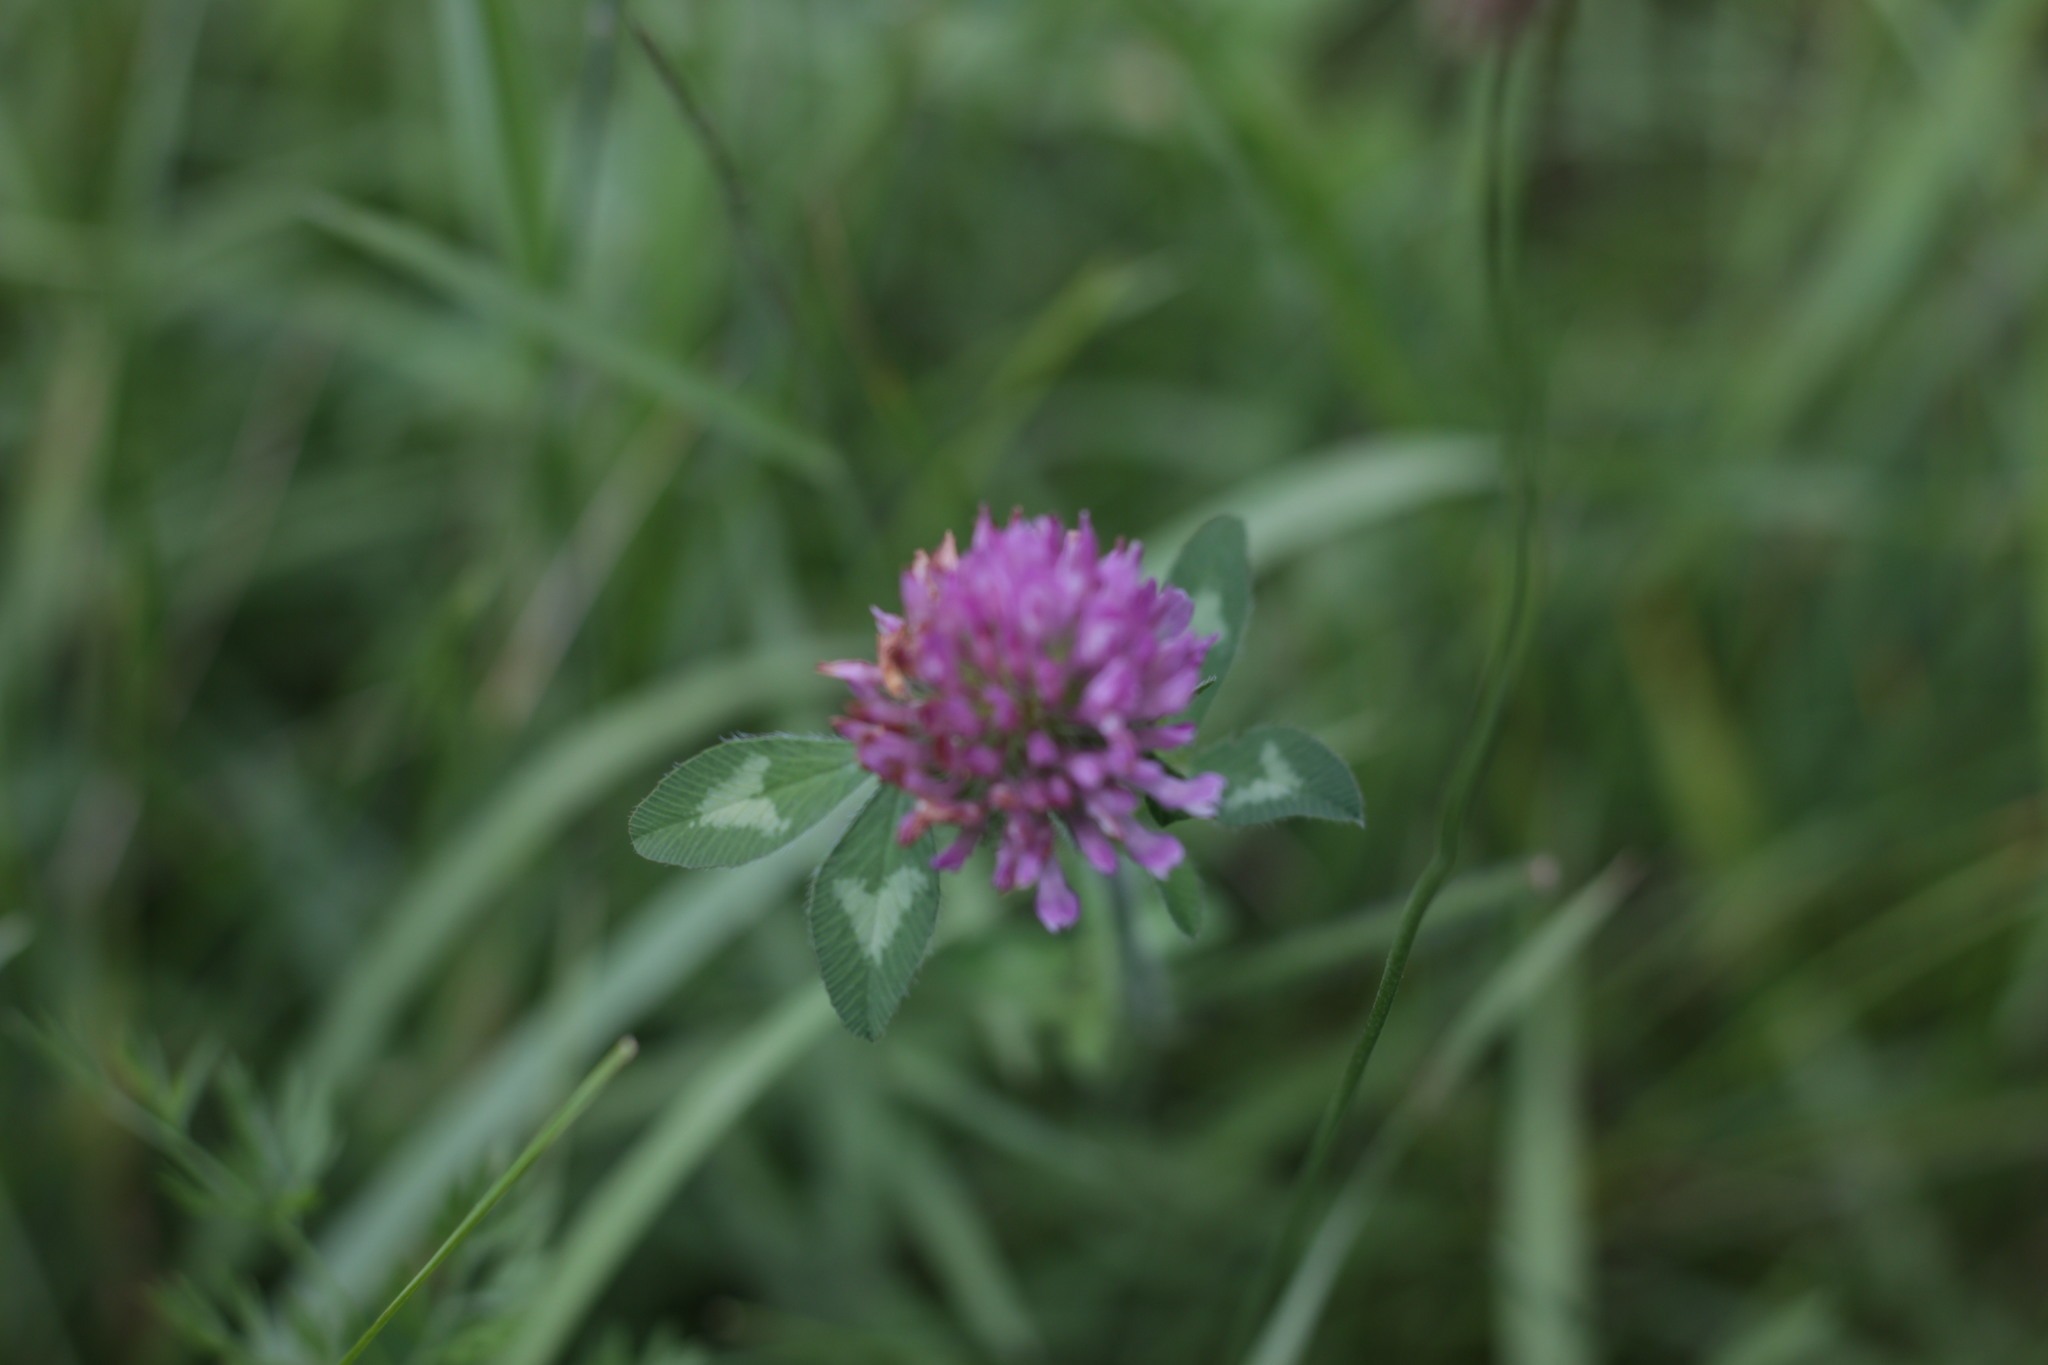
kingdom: Plantae
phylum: Tracheophyta
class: Magnoliopsida
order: Fabales
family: Fabaceae
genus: Trifolium
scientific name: Trifolium pratense
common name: Red clover
